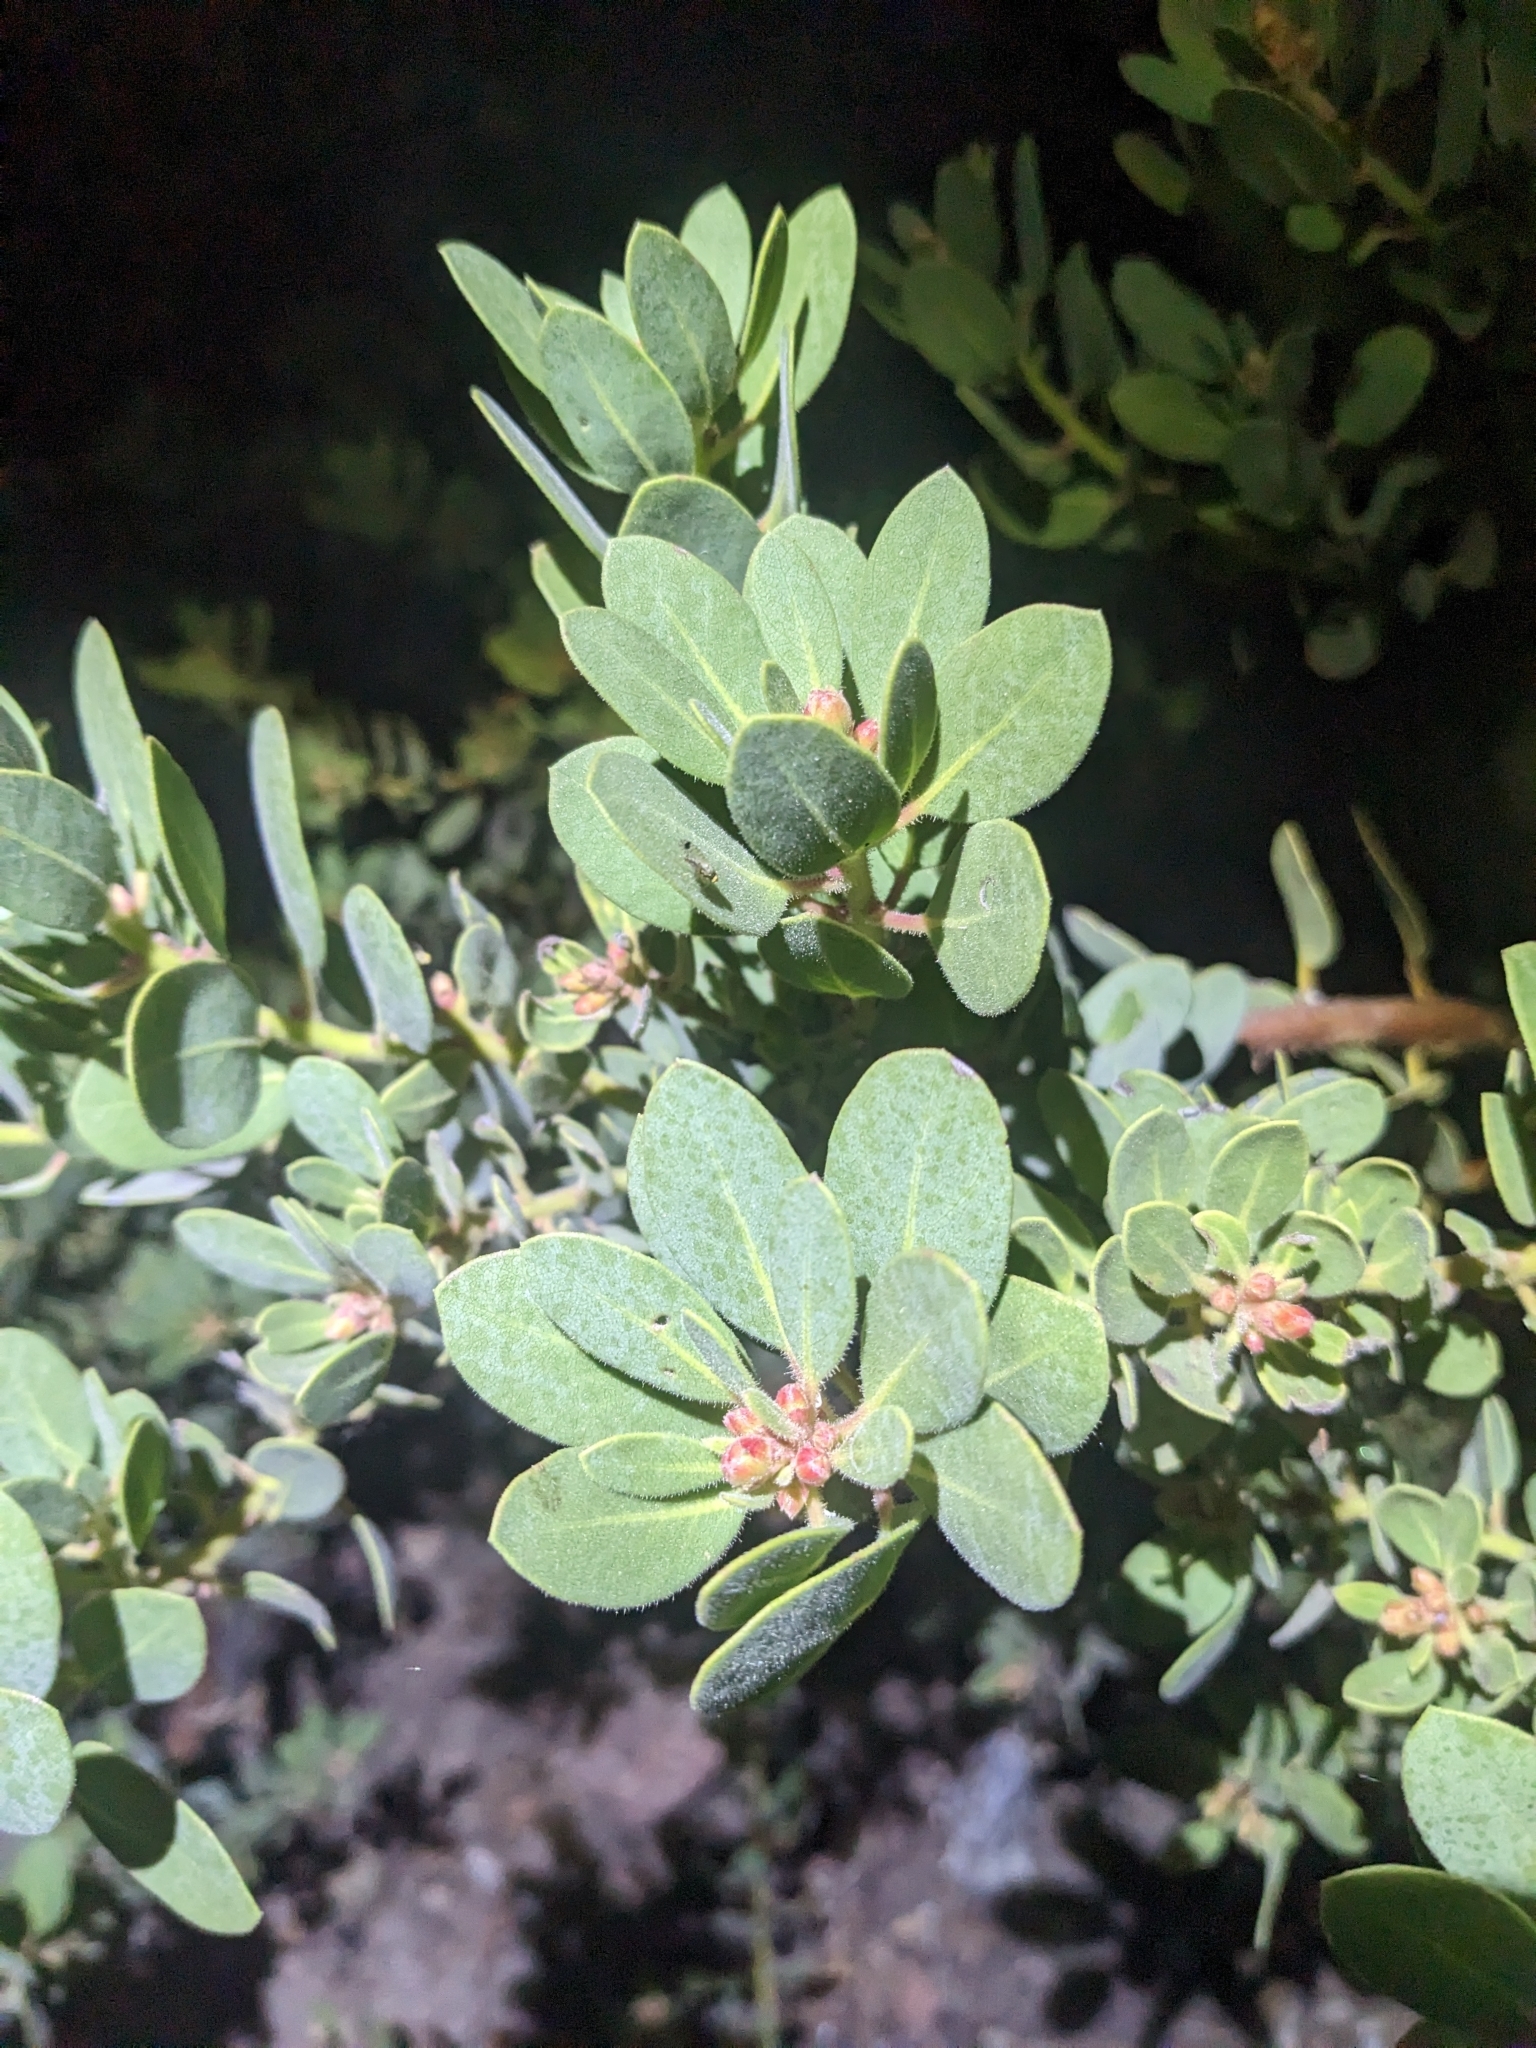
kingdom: Plantae
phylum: Tracheophyta
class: Magnoliopsida
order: Ericales
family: Ericaceae
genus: Arctostaphylos
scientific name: Arctostaphylos pringlei
